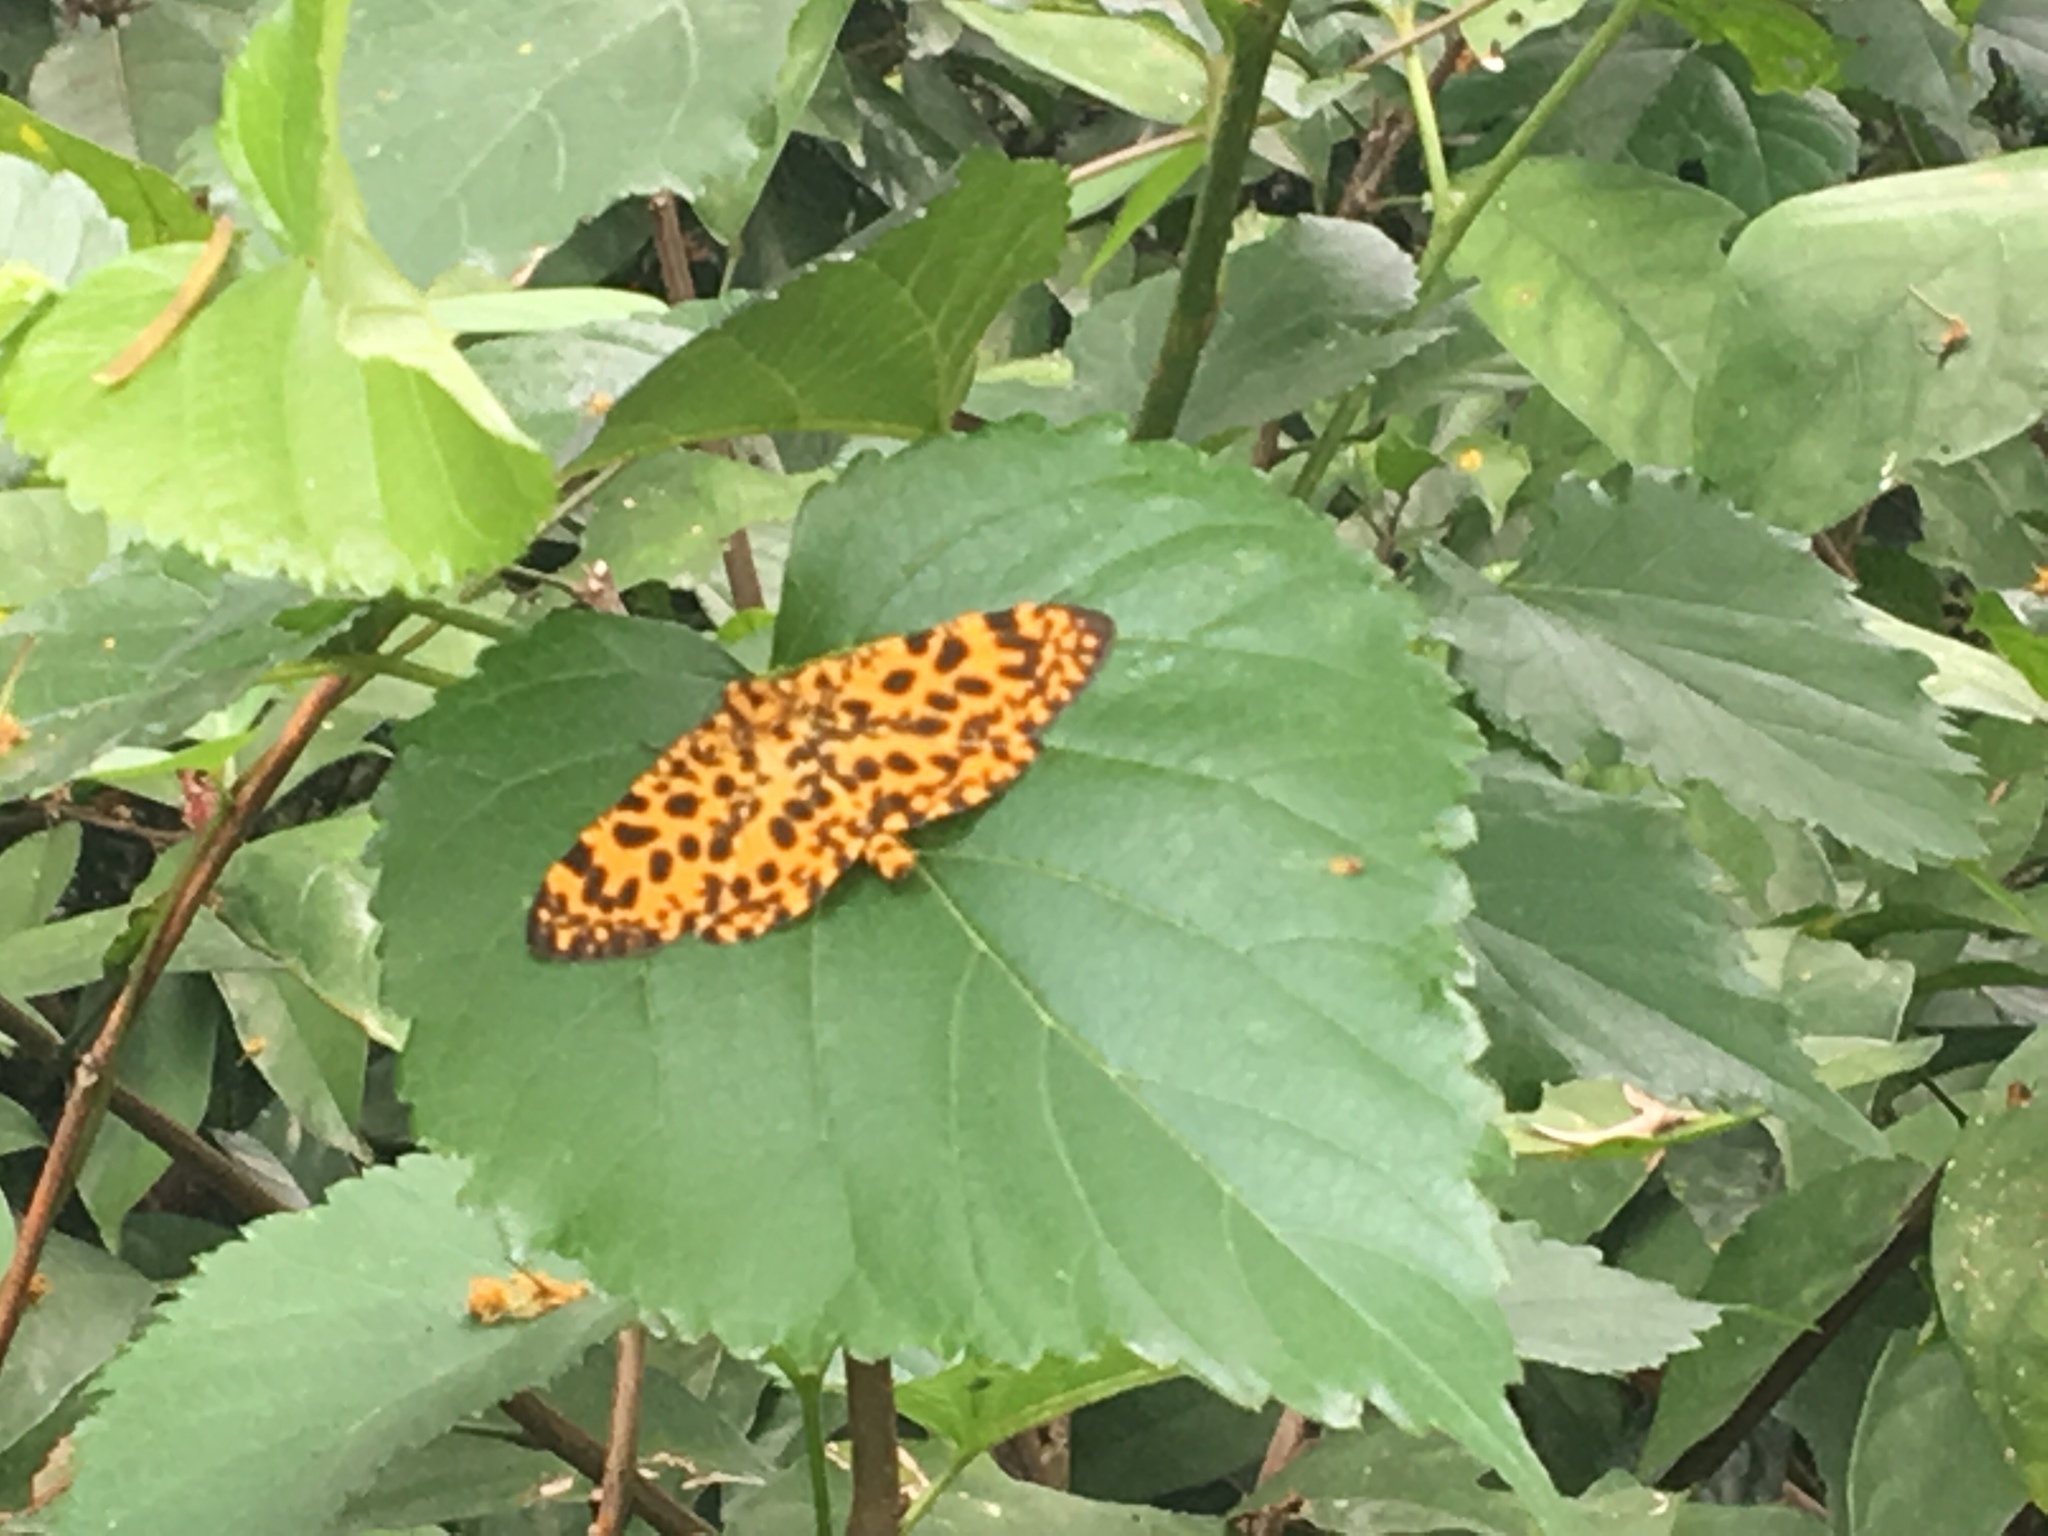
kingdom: Animalia
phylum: Arthropoda
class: Insecta
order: Lepidoptera
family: Geometridae
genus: Obeidia
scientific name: Obeidia Epobeidia tigrata
